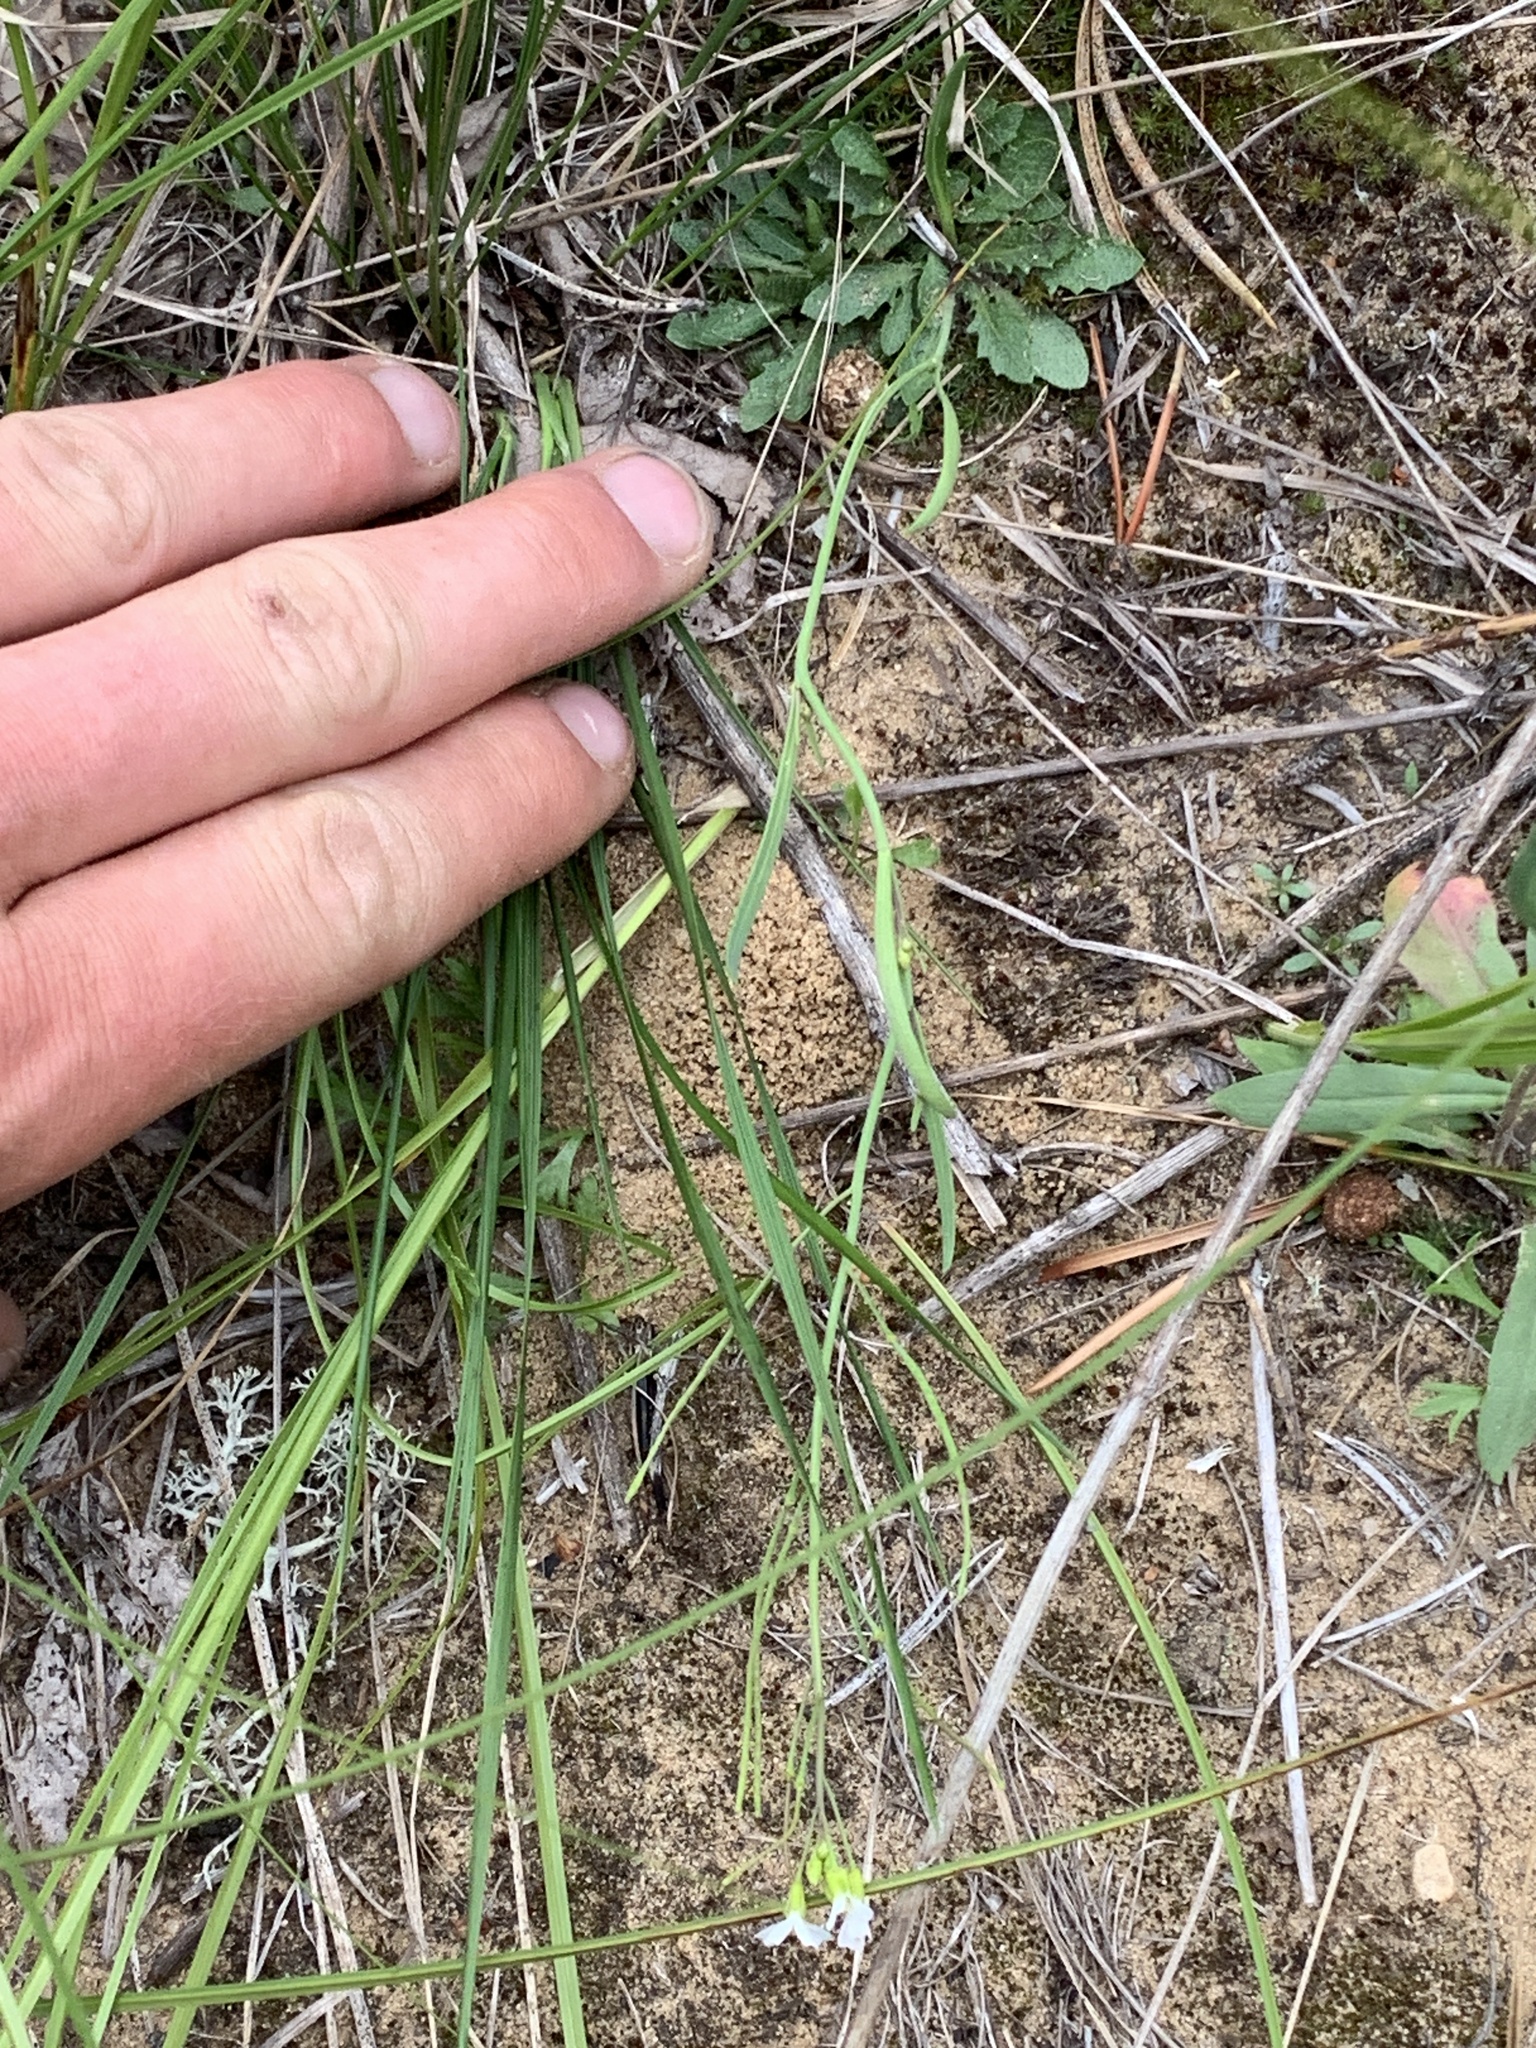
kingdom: Plantae
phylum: Tracheophyta
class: Magnoliopsida
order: Brassicales
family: Brassicaceae
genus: Arabidopsis
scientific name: Arabidopsis lyrata
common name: Lyrate rockcress
